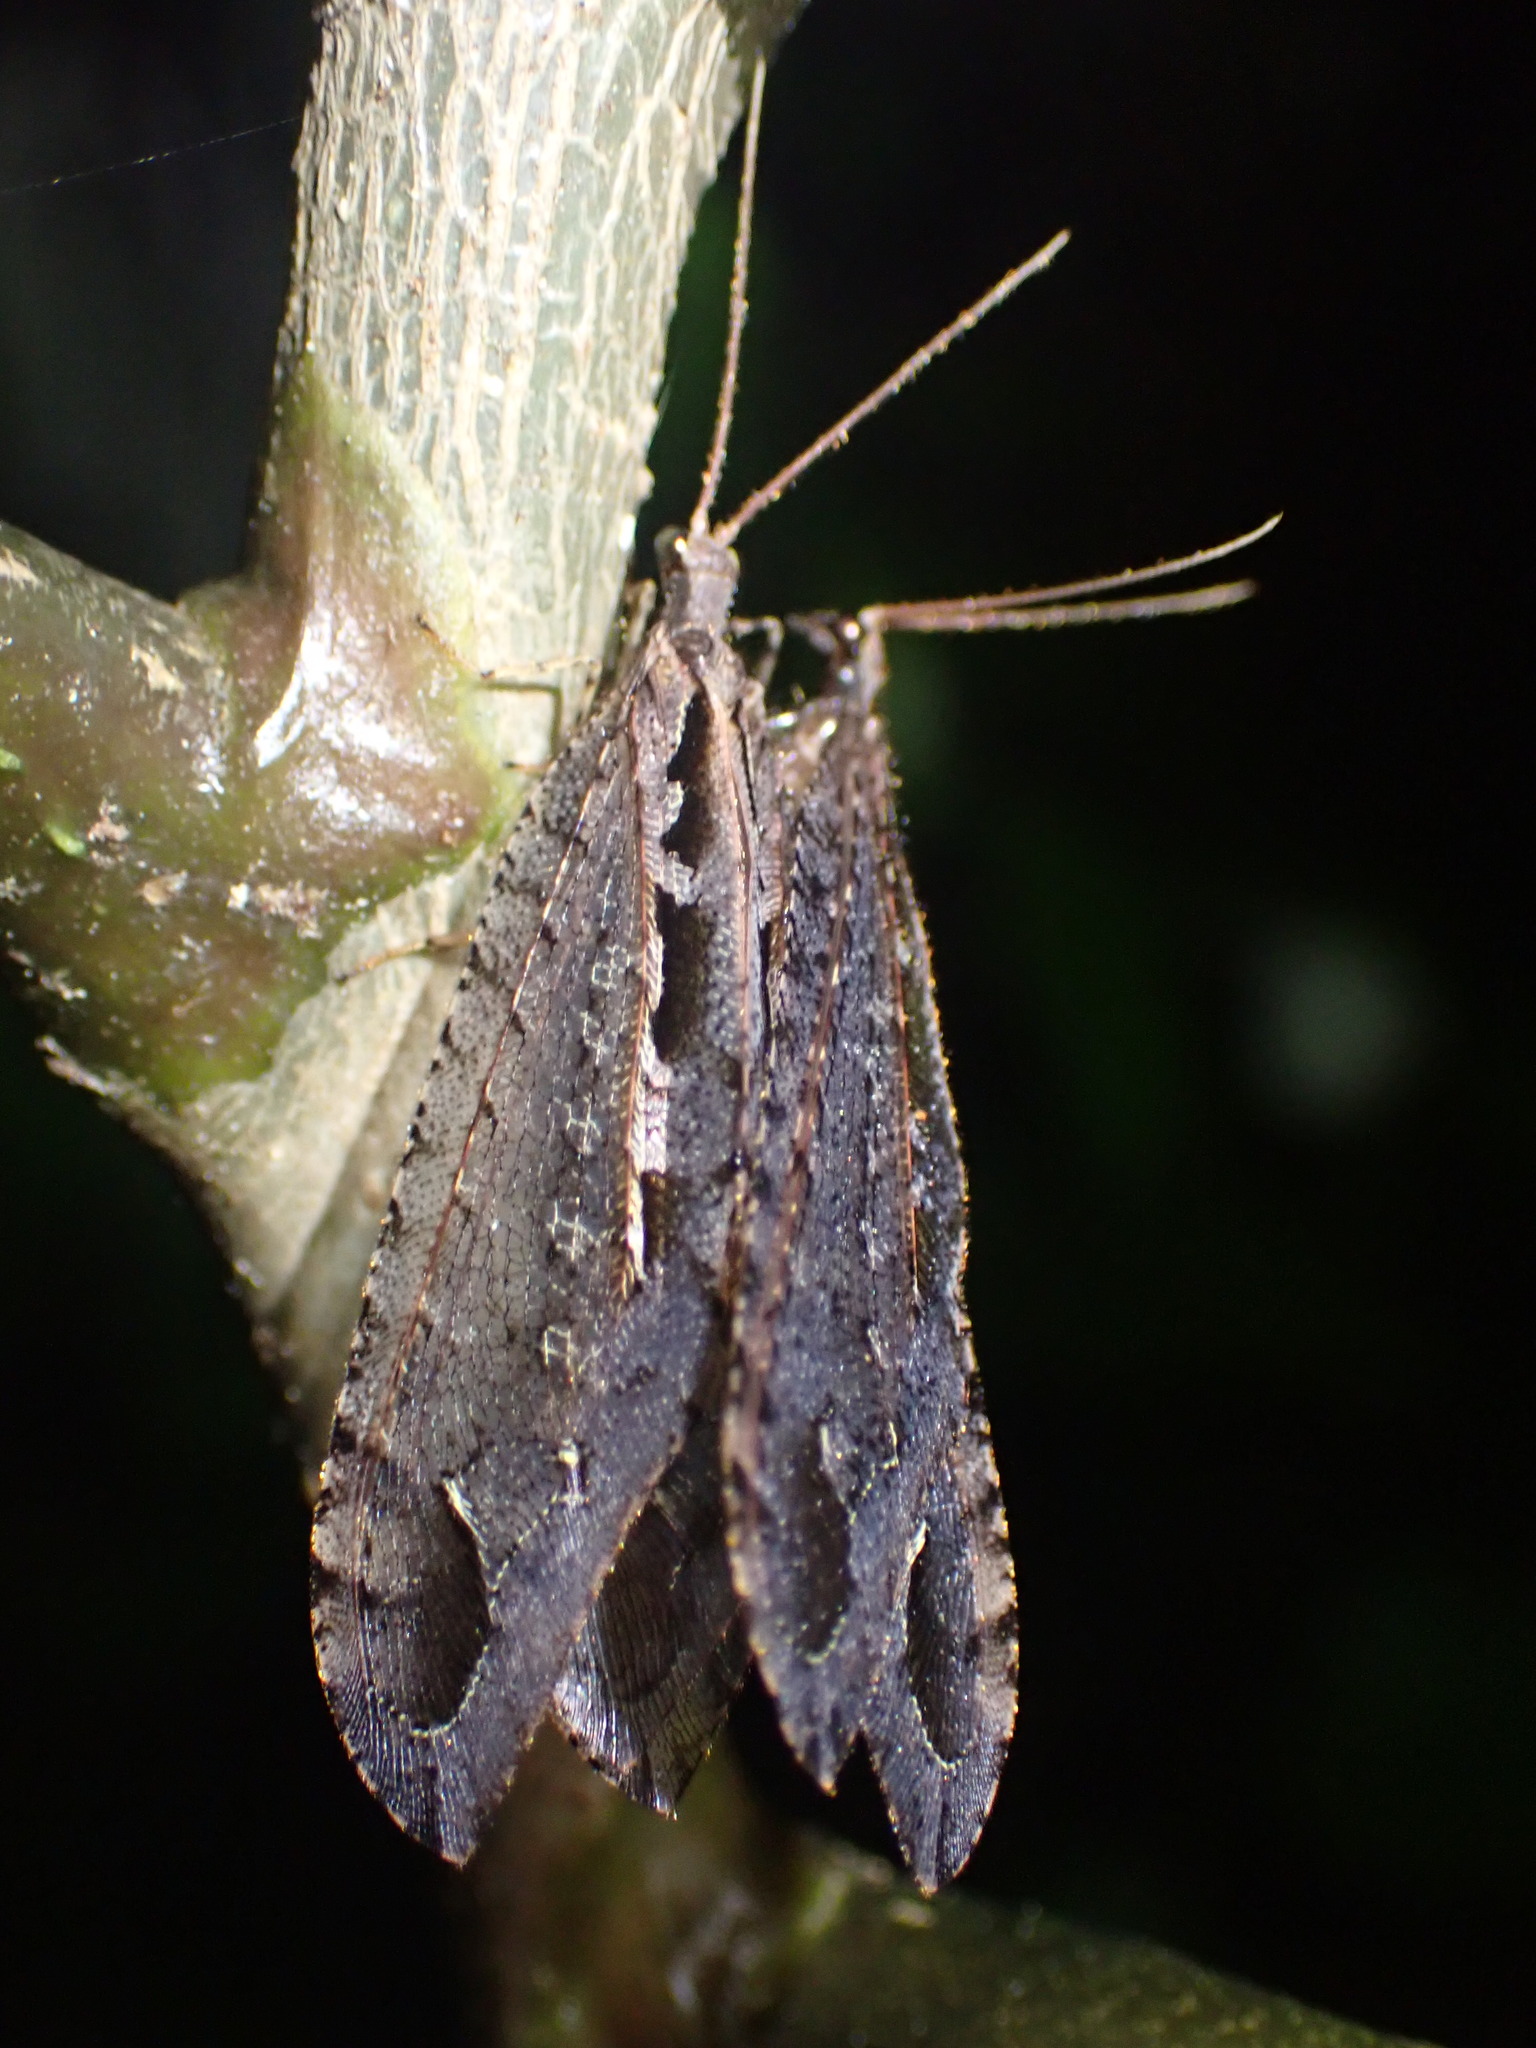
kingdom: Animalia
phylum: Arthropoda
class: Insecta
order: Neuroptera
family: Osmylidae
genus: Kempynus
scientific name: Kempynus incisus
